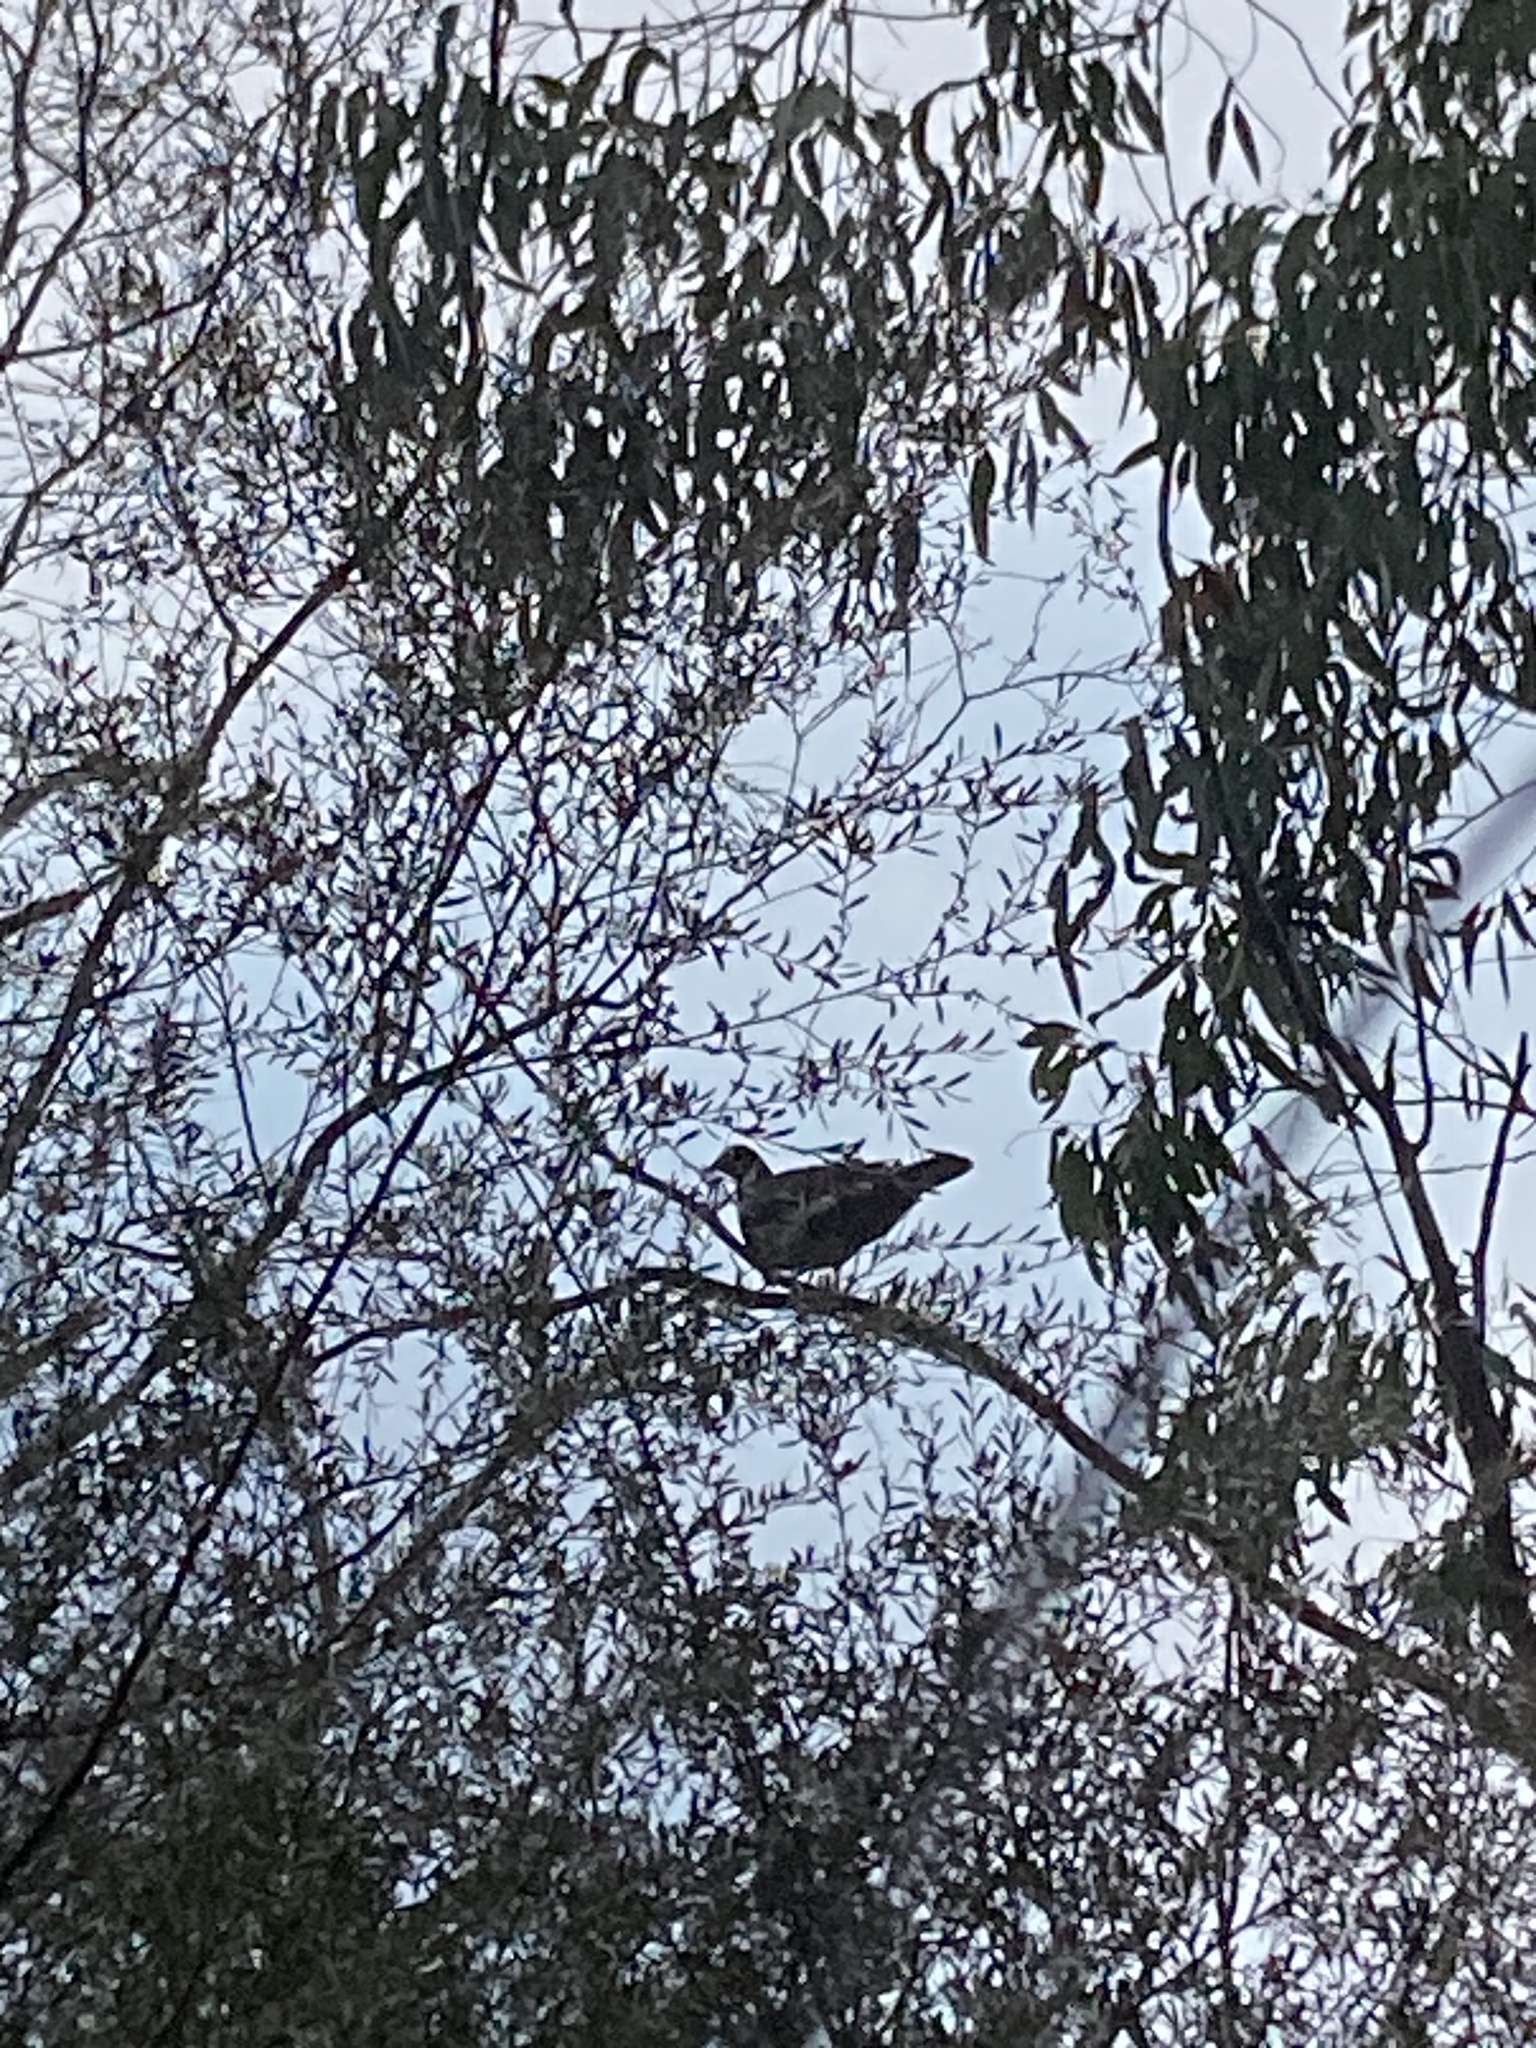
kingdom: Animalia
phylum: Chordata
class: Aves
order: Columbiformes
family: Columbidae
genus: Leucosarcia
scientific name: Leucosarcia melanoleuca
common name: Wonga pigeon
